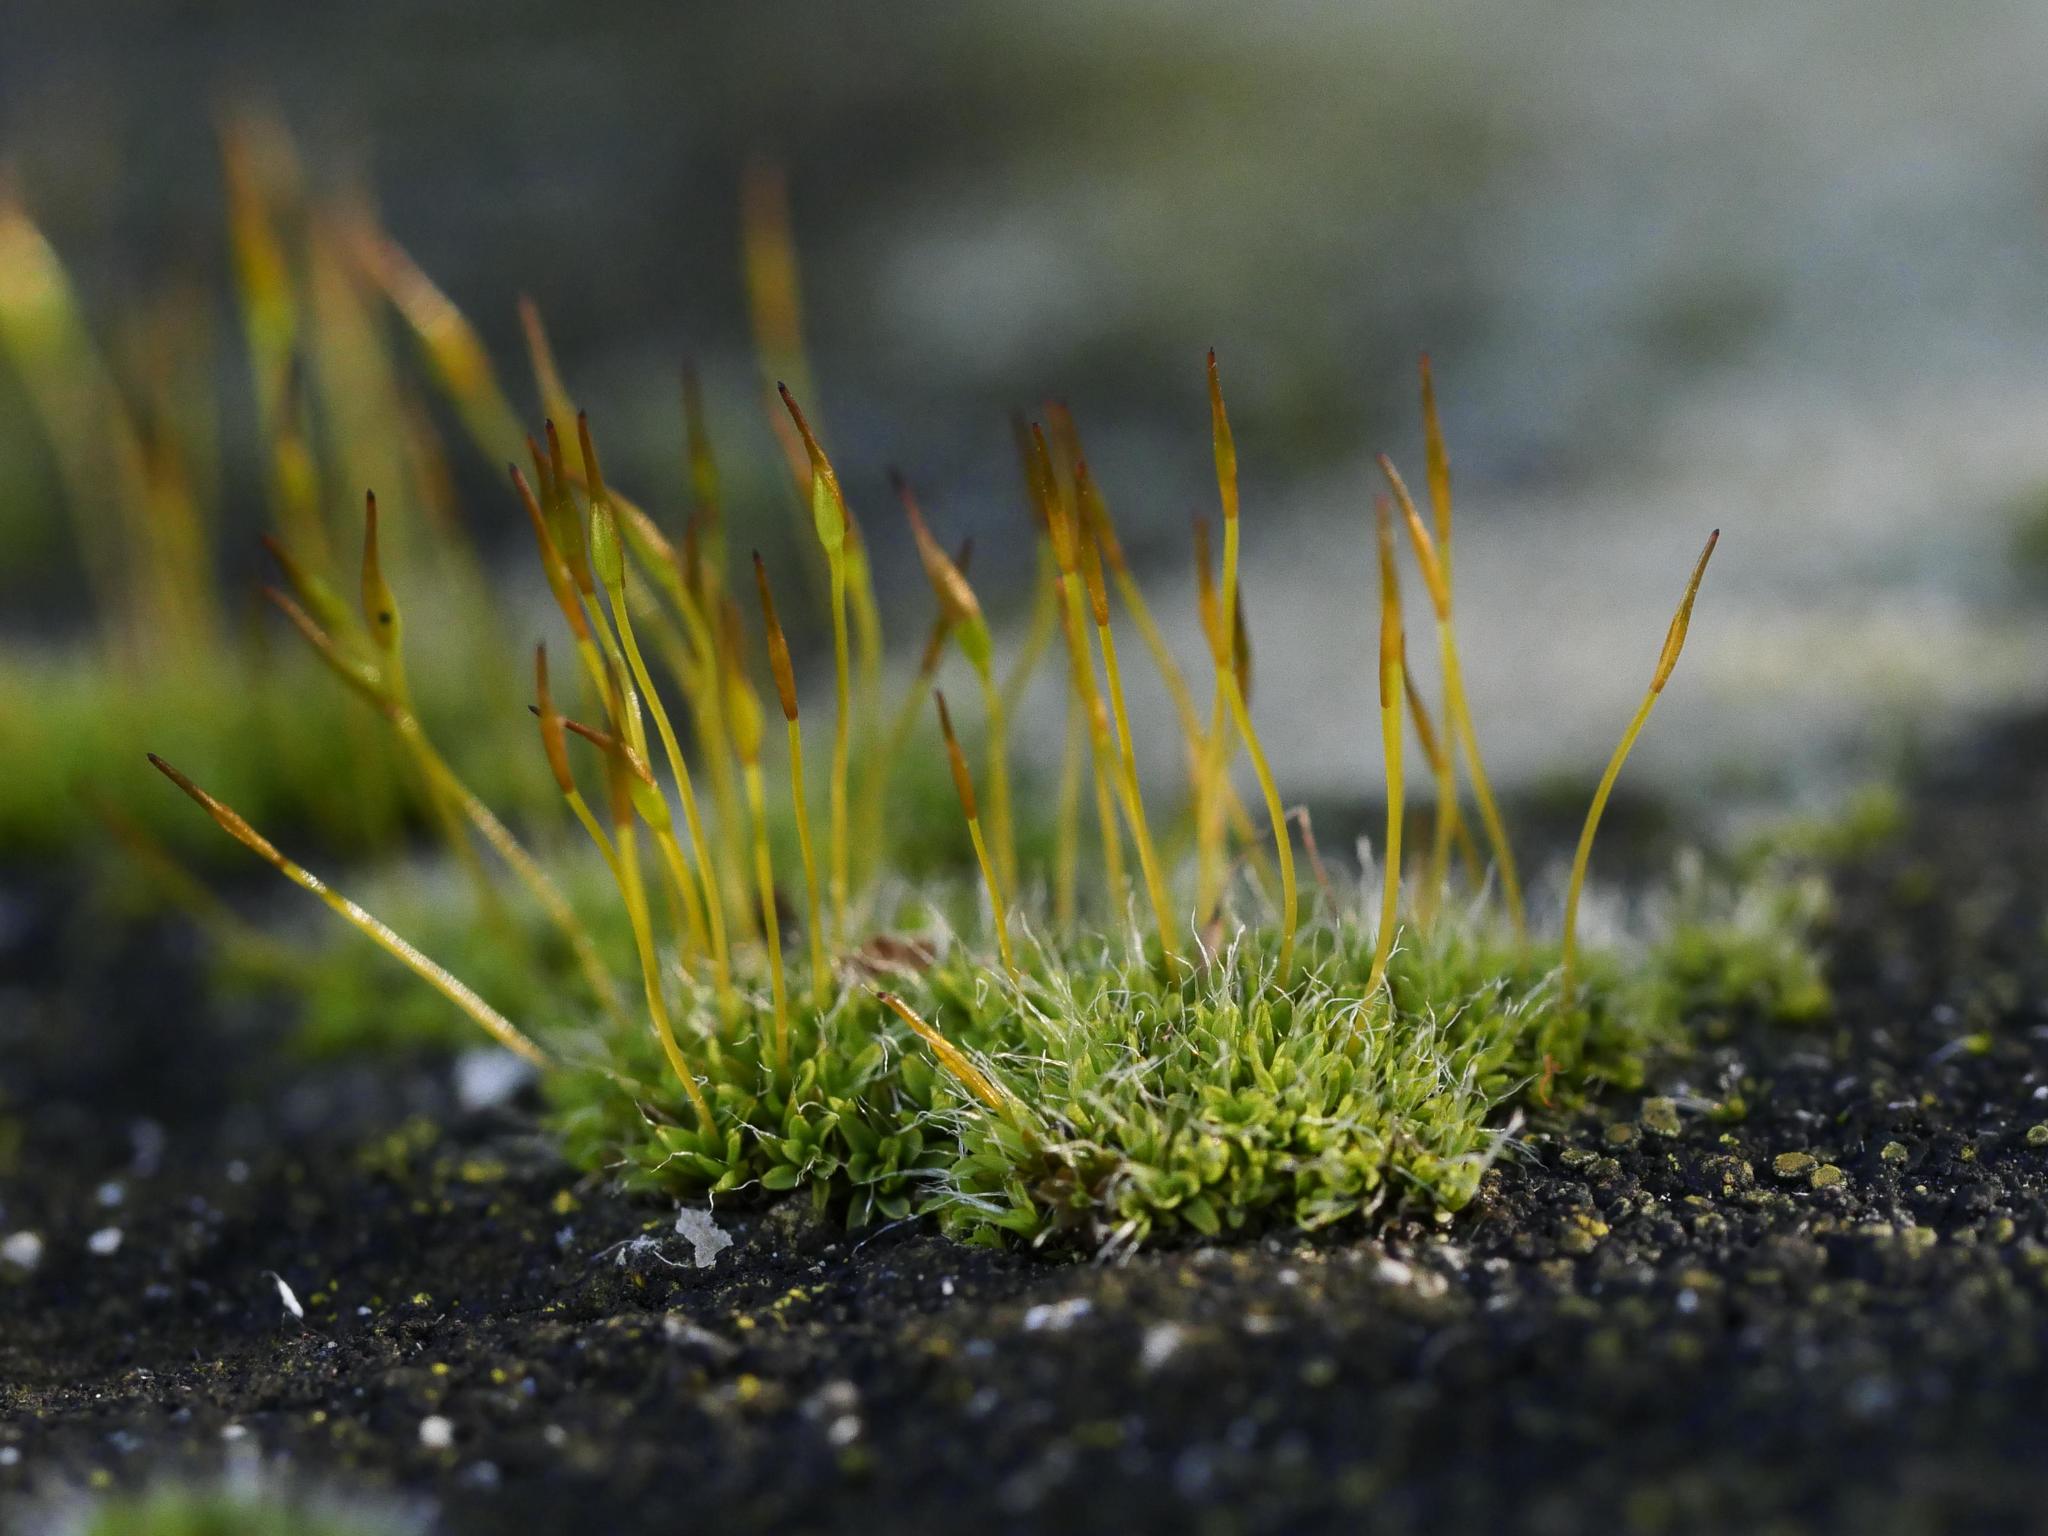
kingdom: Plantae
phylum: Bryophyta
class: Bryopsida
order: Pottiales
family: Pottiaceae
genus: Tortula
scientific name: Tortula muralis
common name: Wall screw-moss
